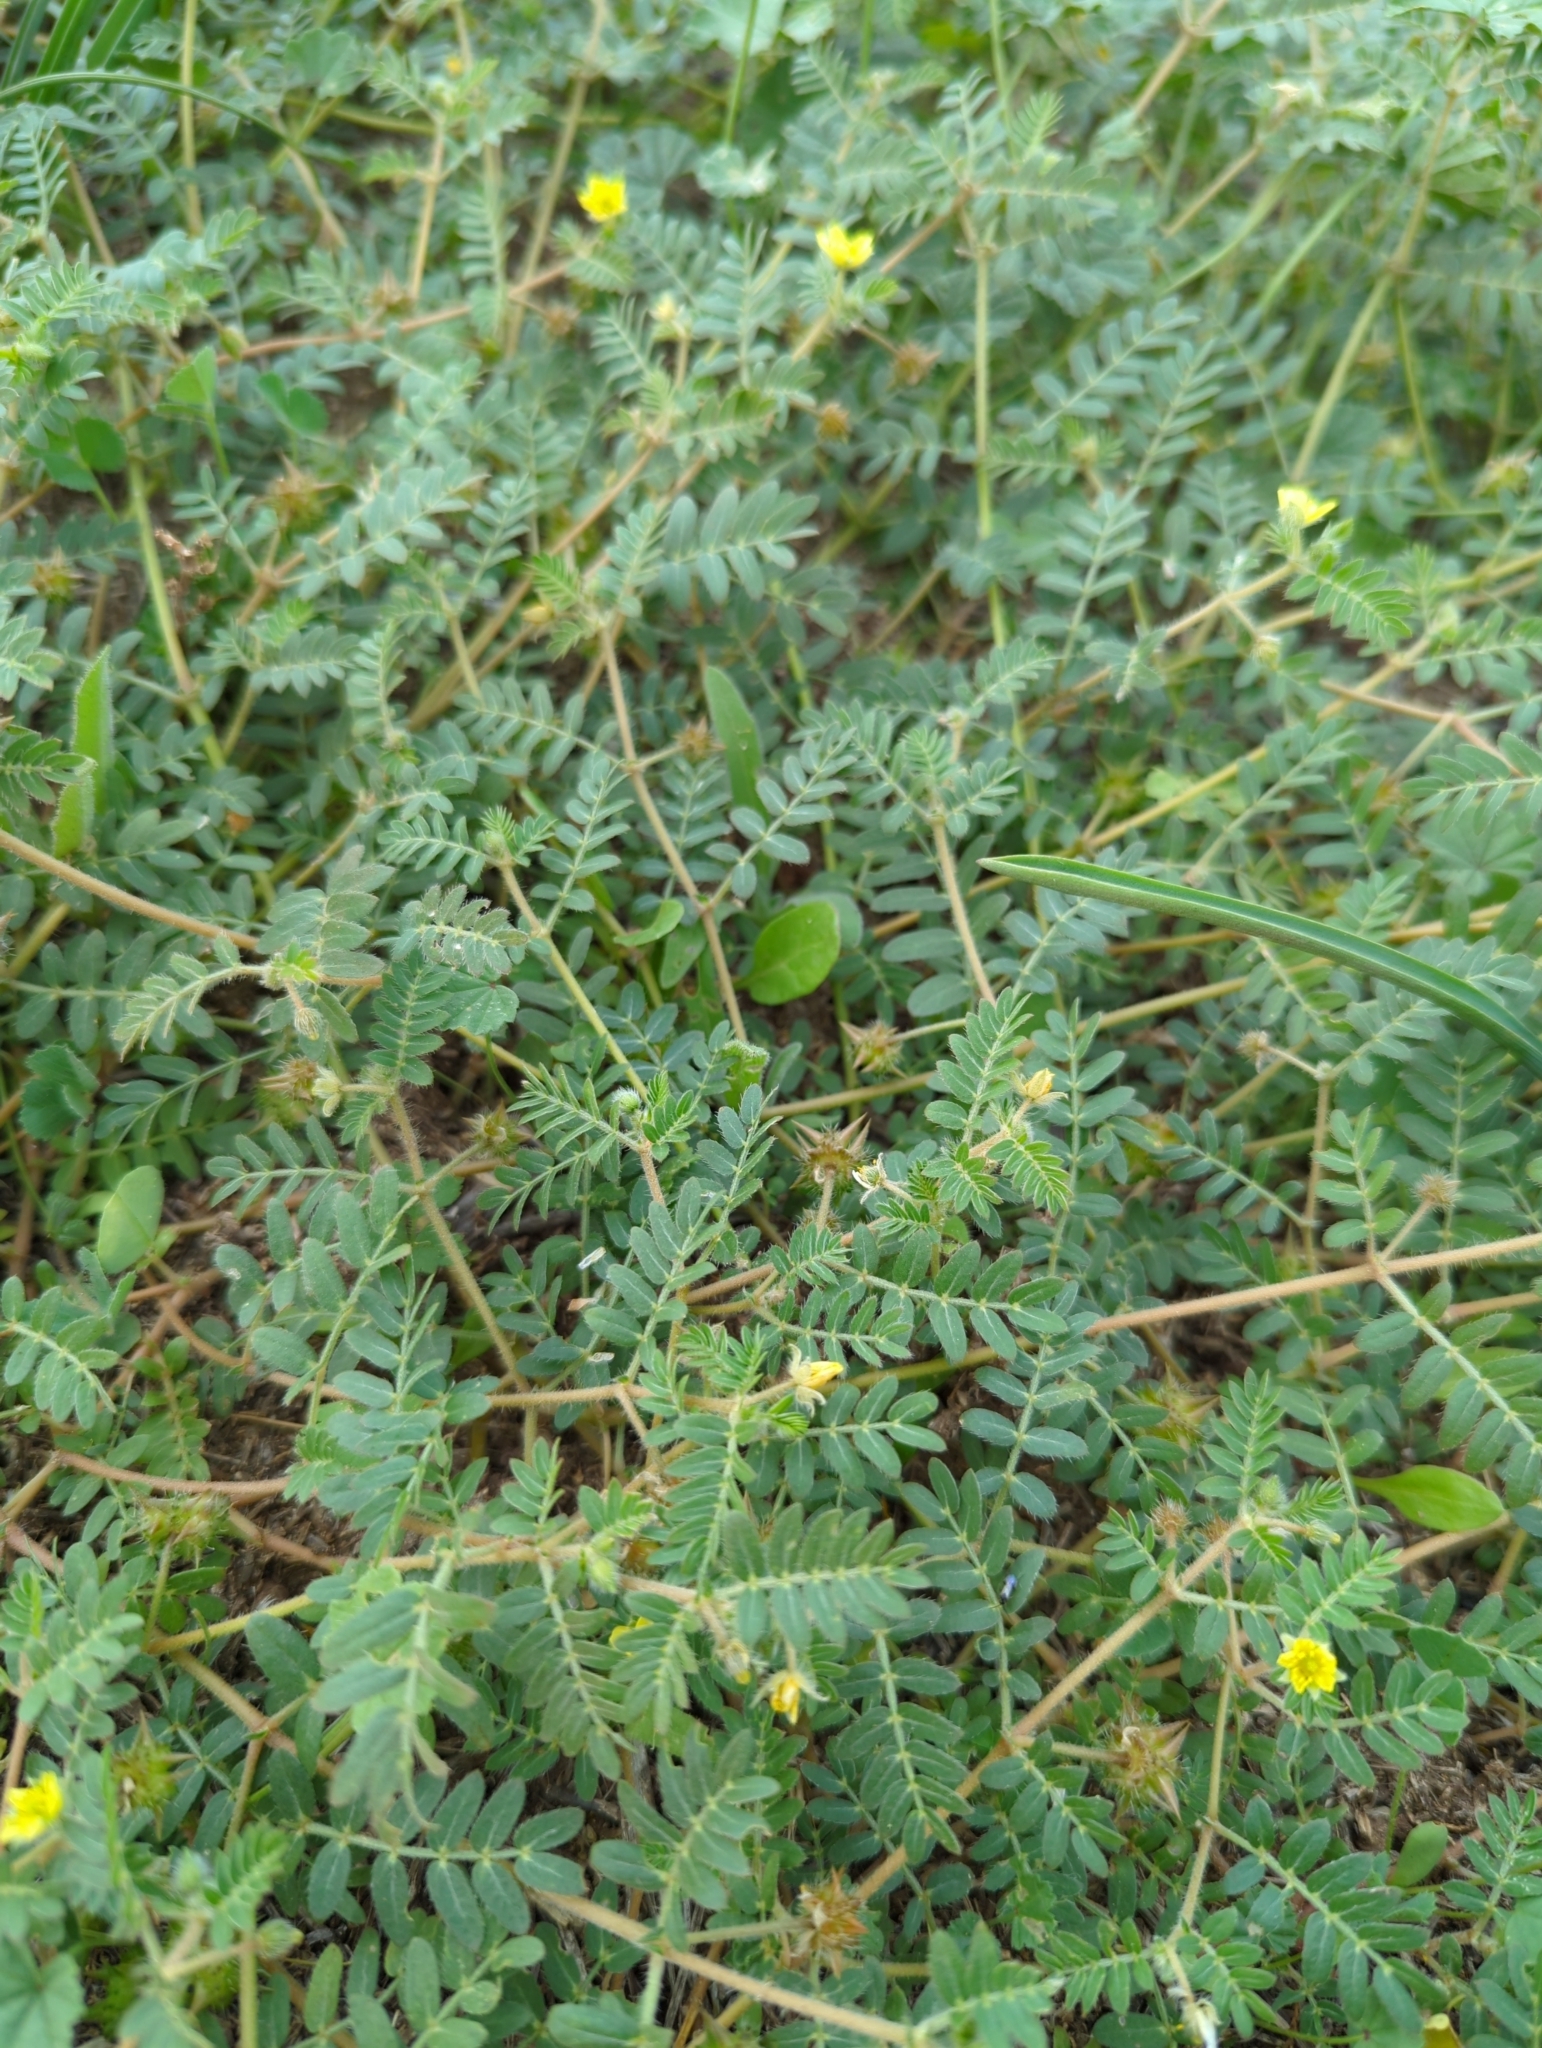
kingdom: Plantae
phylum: Tracheophyta
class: Magnoliopsida
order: Zygophyllales
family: Zygophyllaceae
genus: Tribulus
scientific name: Tribulus terrestris
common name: Puncturevine
